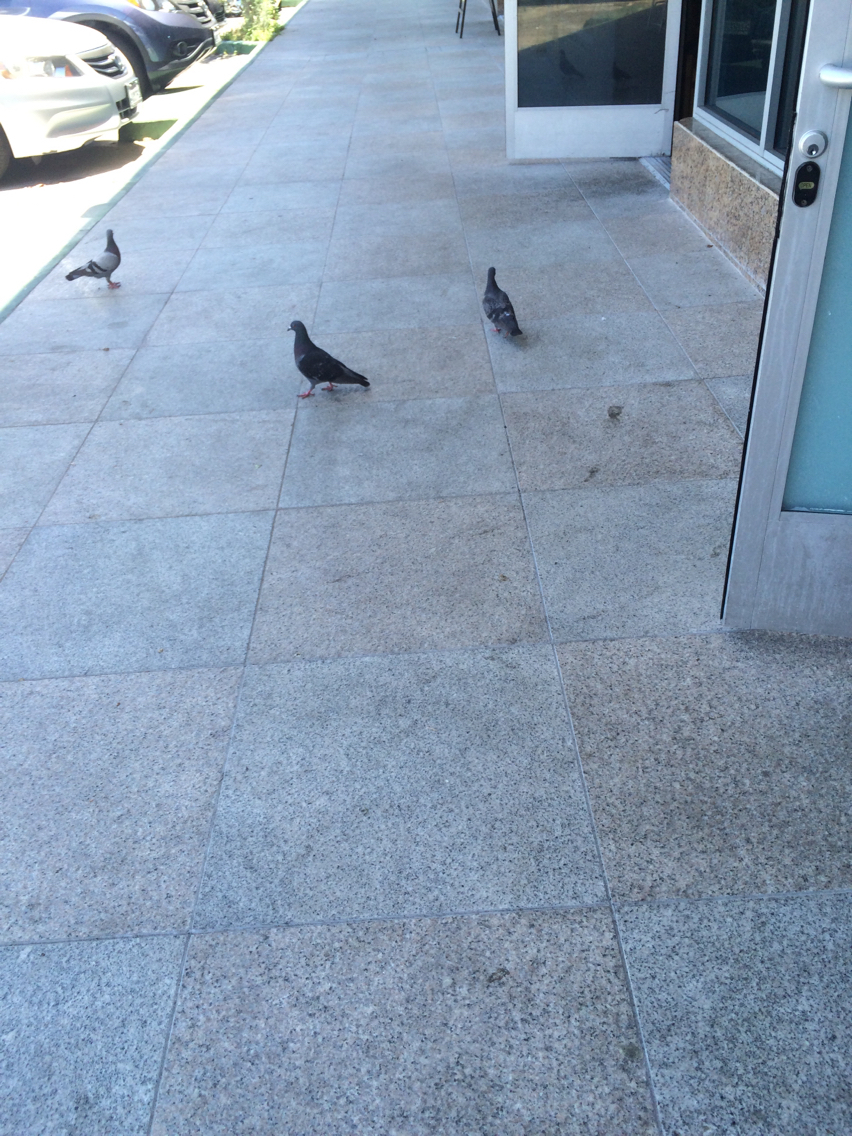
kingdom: Animalia
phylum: Chordata
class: Aves
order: Columbiformes
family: Columbidae
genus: Columba
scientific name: Columba livia
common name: Rock pigeon
